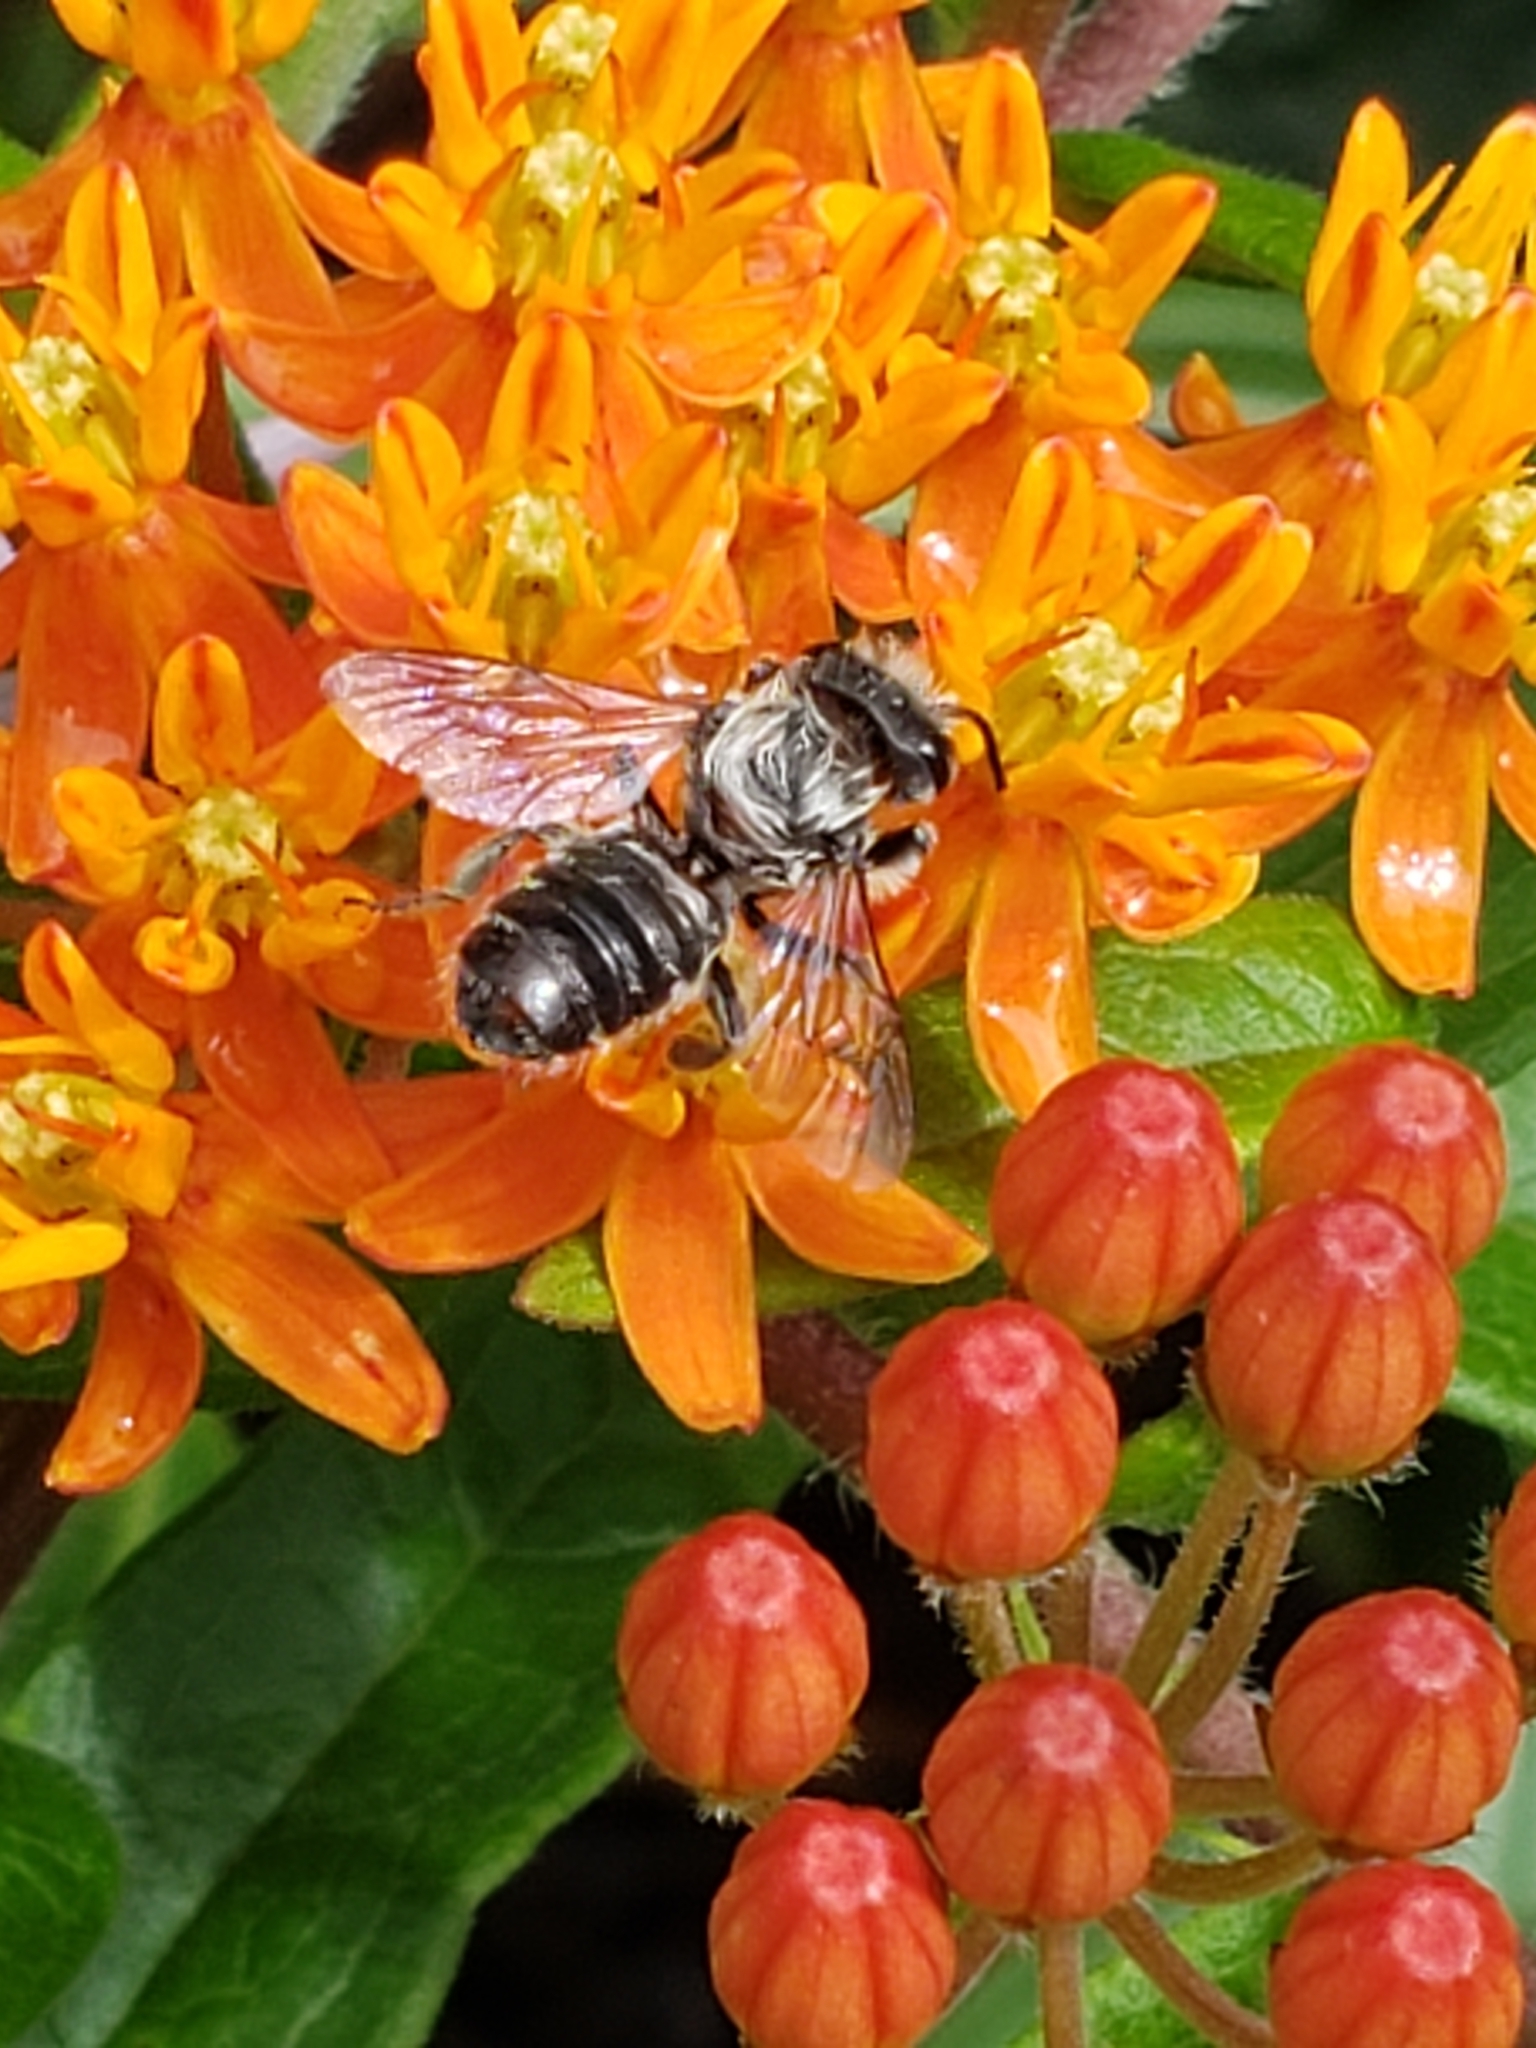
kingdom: Animalia
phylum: Arthropoda
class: Insecta
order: Hymenoptera
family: Megachilidae
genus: Megachile
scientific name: Megachile
